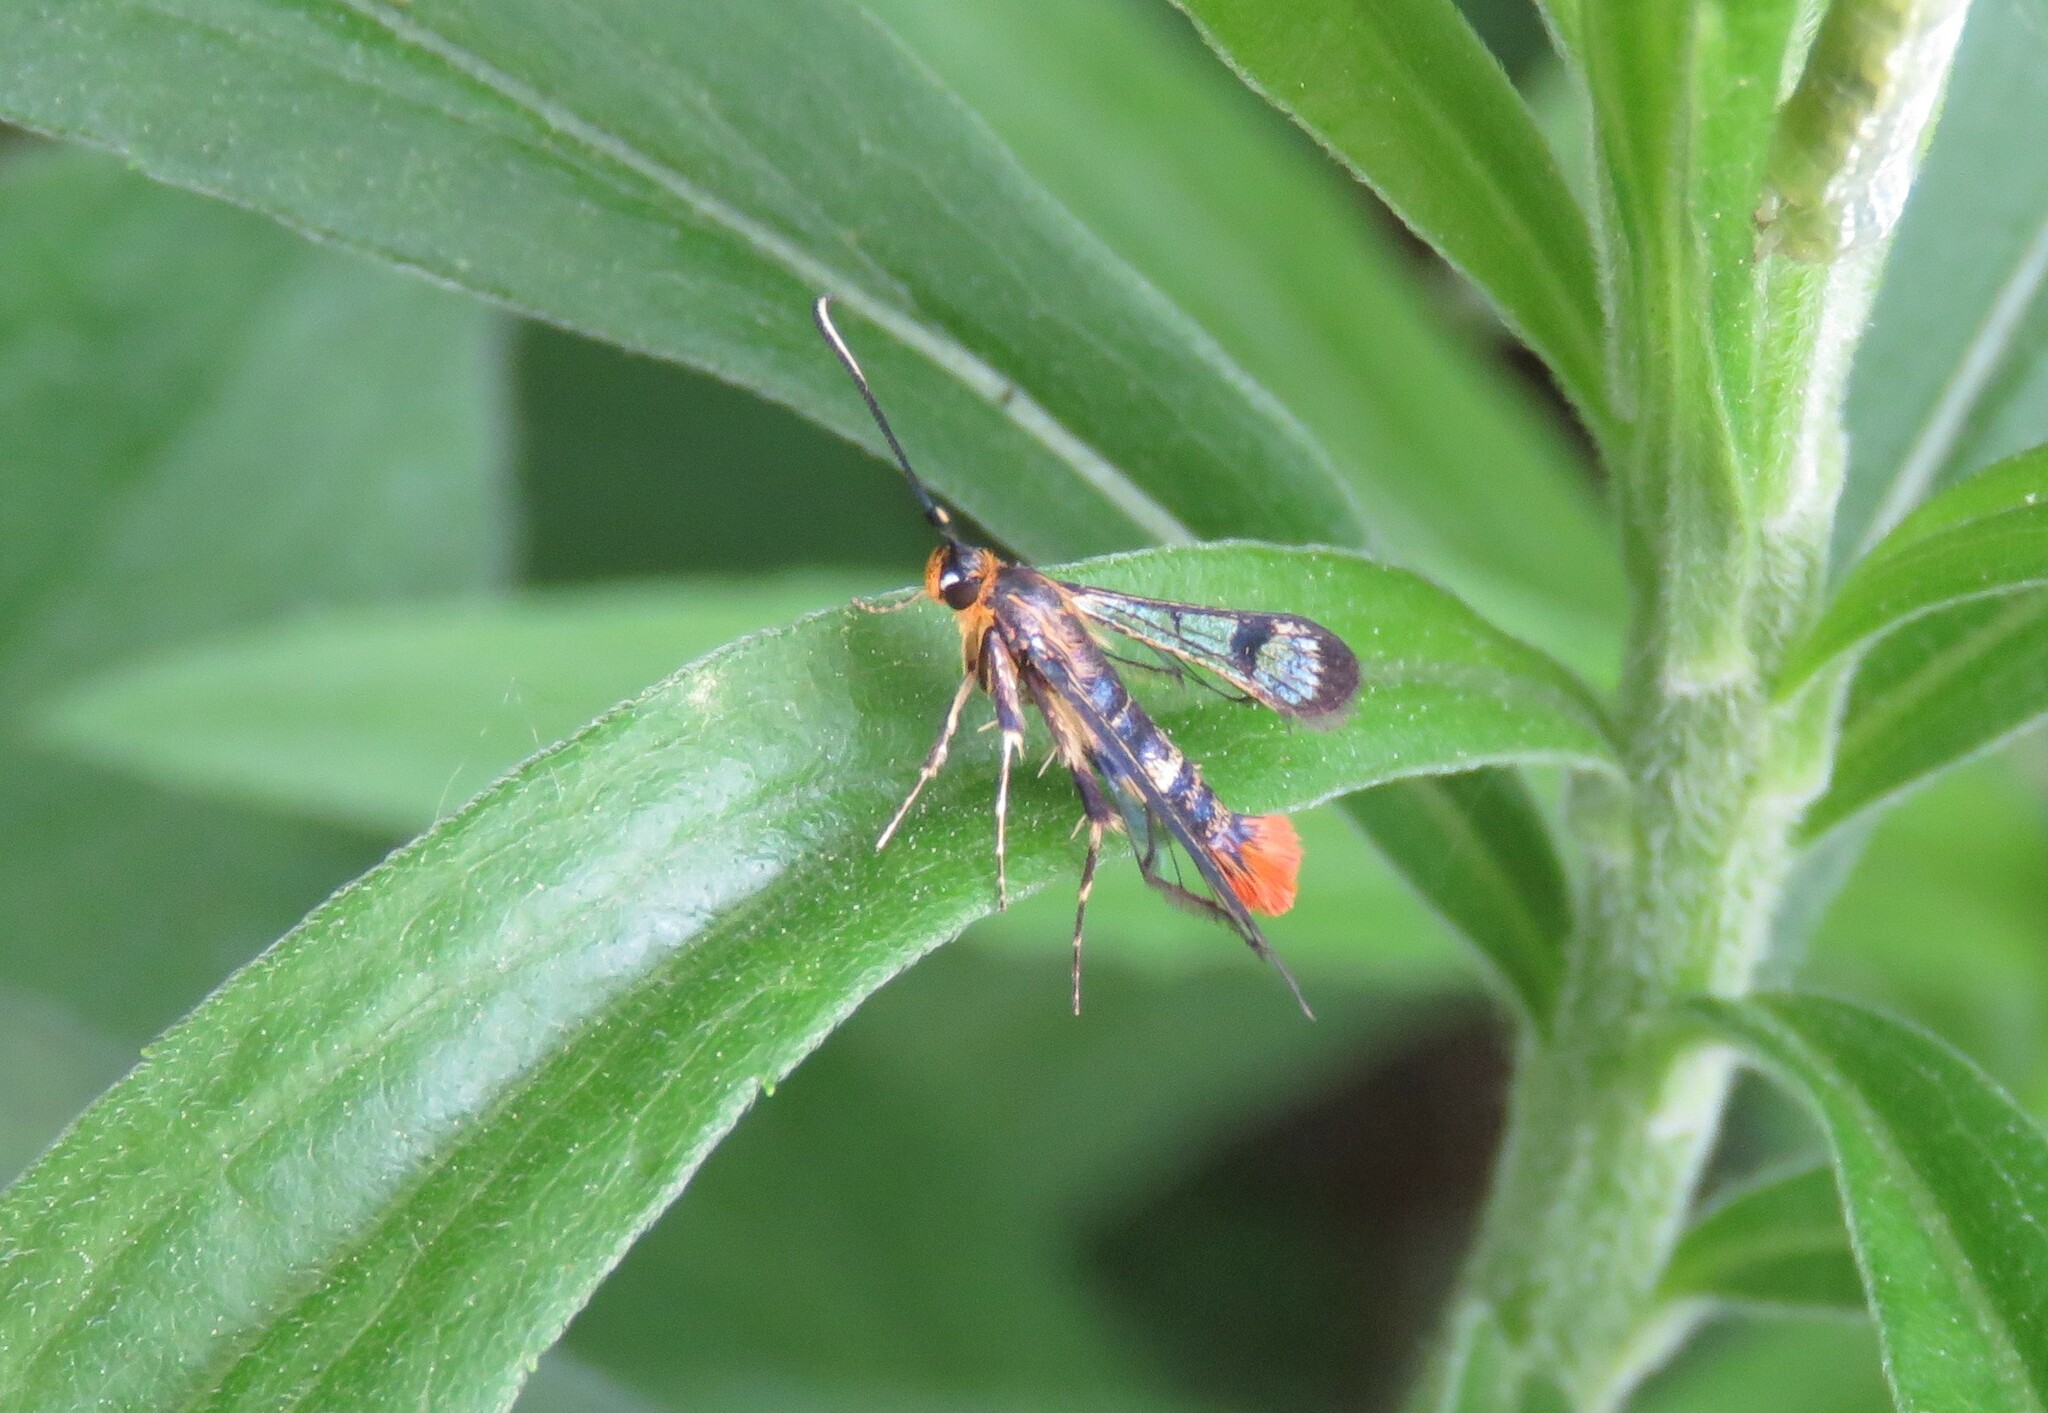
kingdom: Animalia
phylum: Arthropoda
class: Insecta
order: Lepidoptera
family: Sesiidae
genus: Synanthedon
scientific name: Synanthedon acerrubri
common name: Maple clearwing moth
